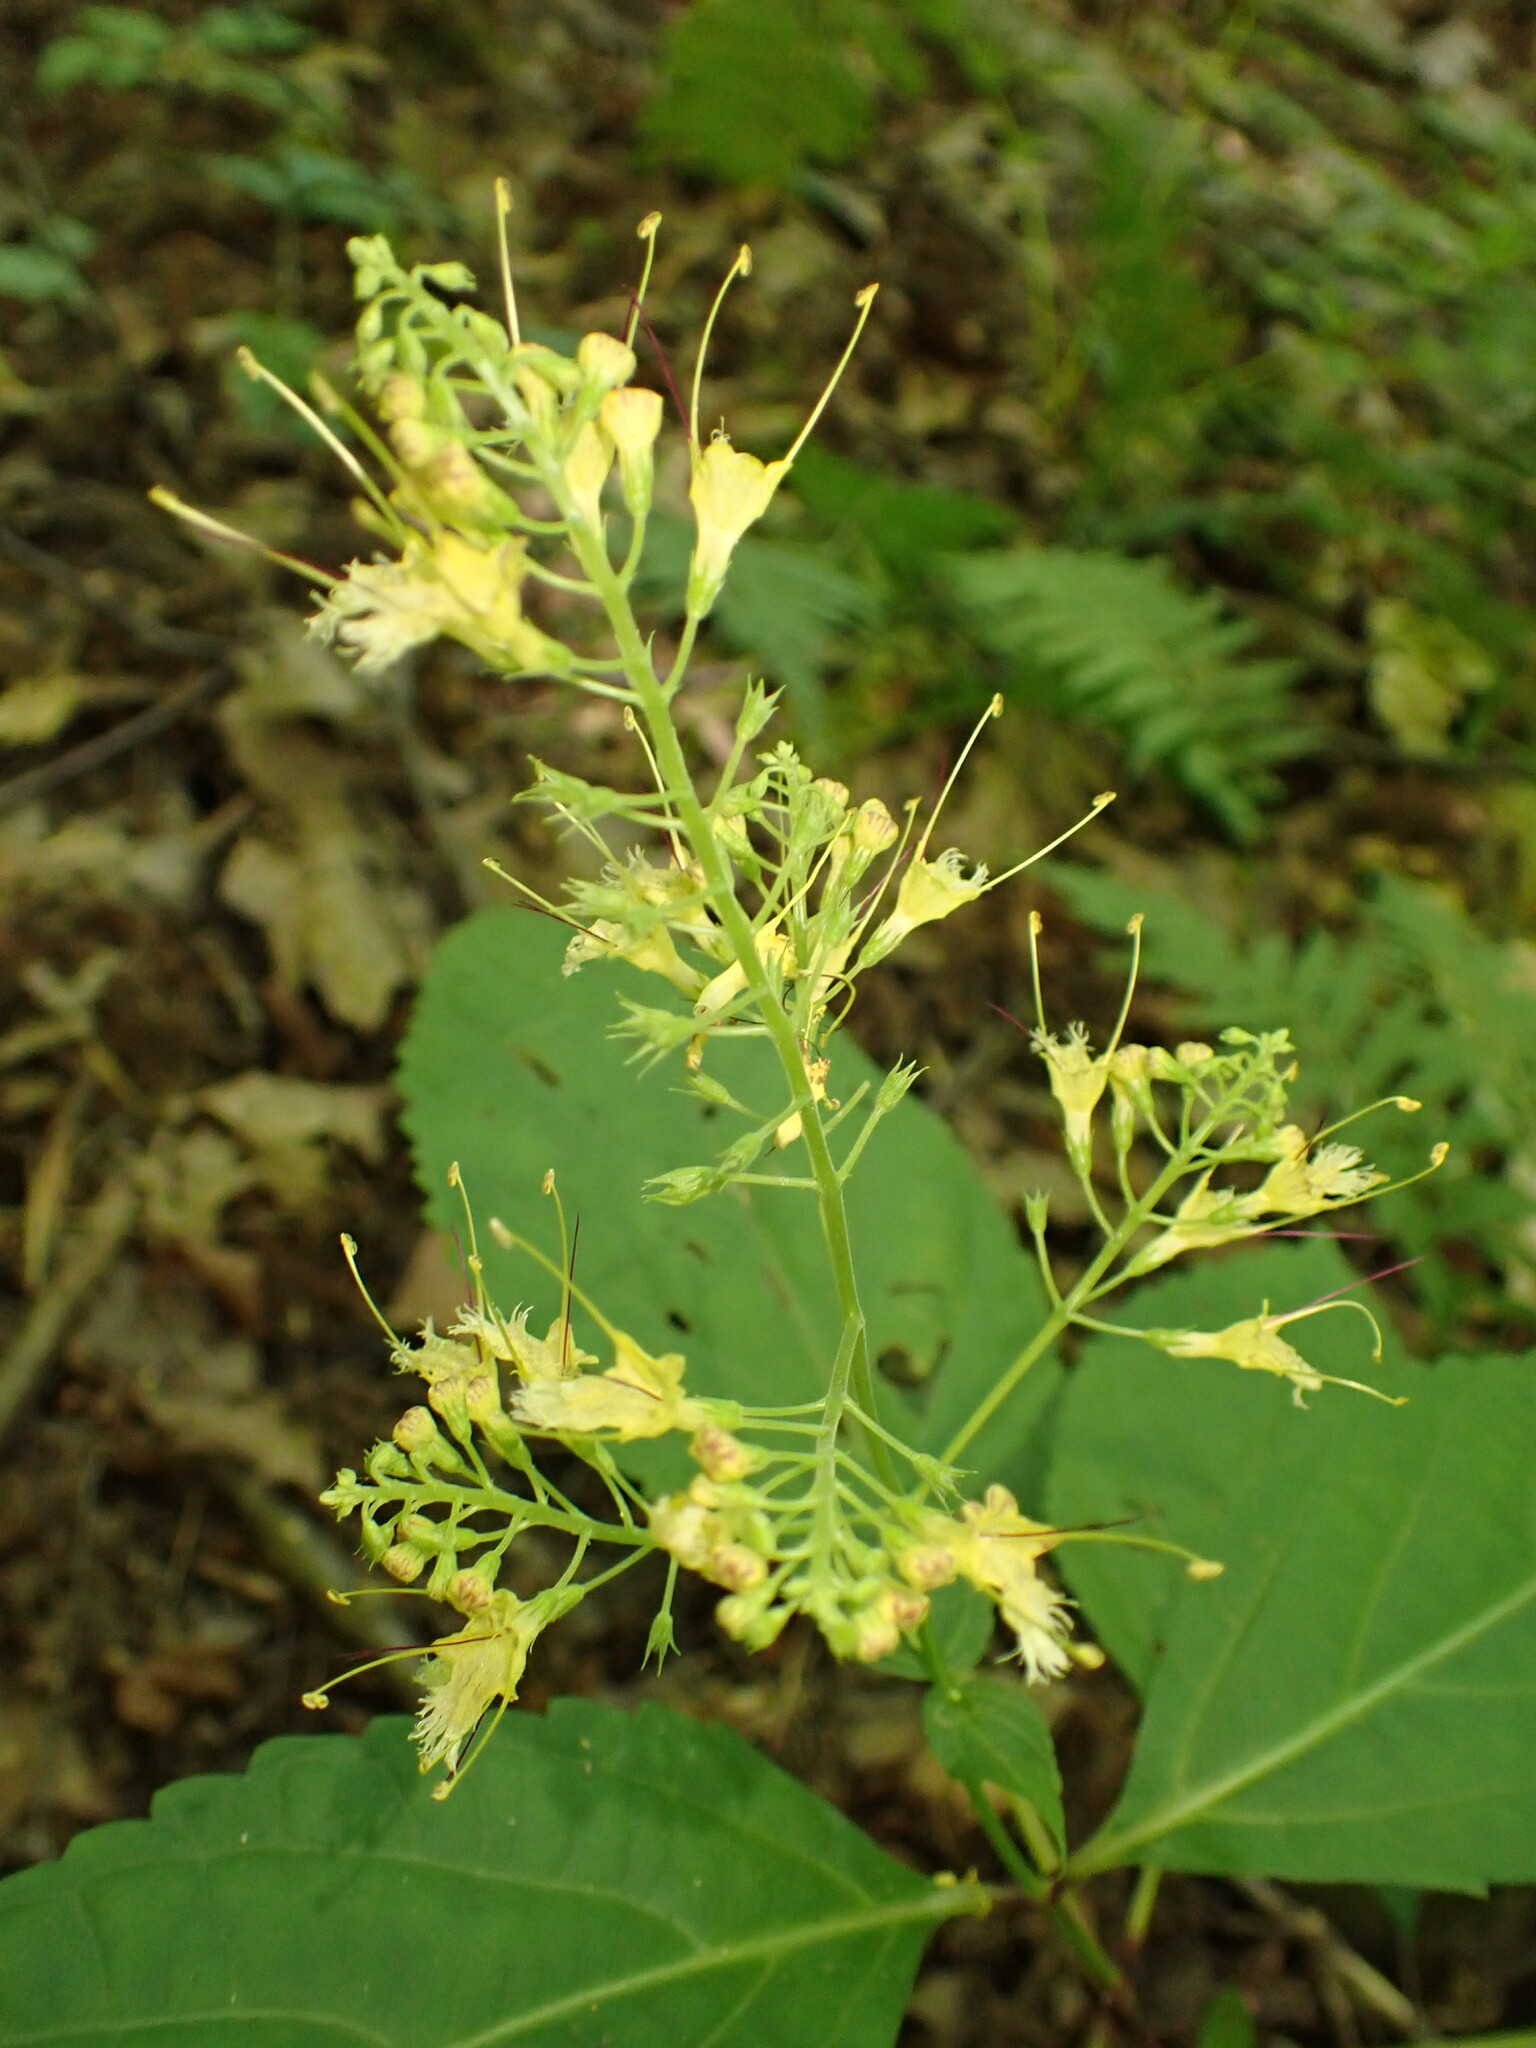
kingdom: Plantae
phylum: Tracheophyta
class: Magnoliopsida
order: Lamiales
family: Lamiaceae
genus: Collinsonia
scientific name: Collinsonia canadensis
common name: Northern horsebalm
